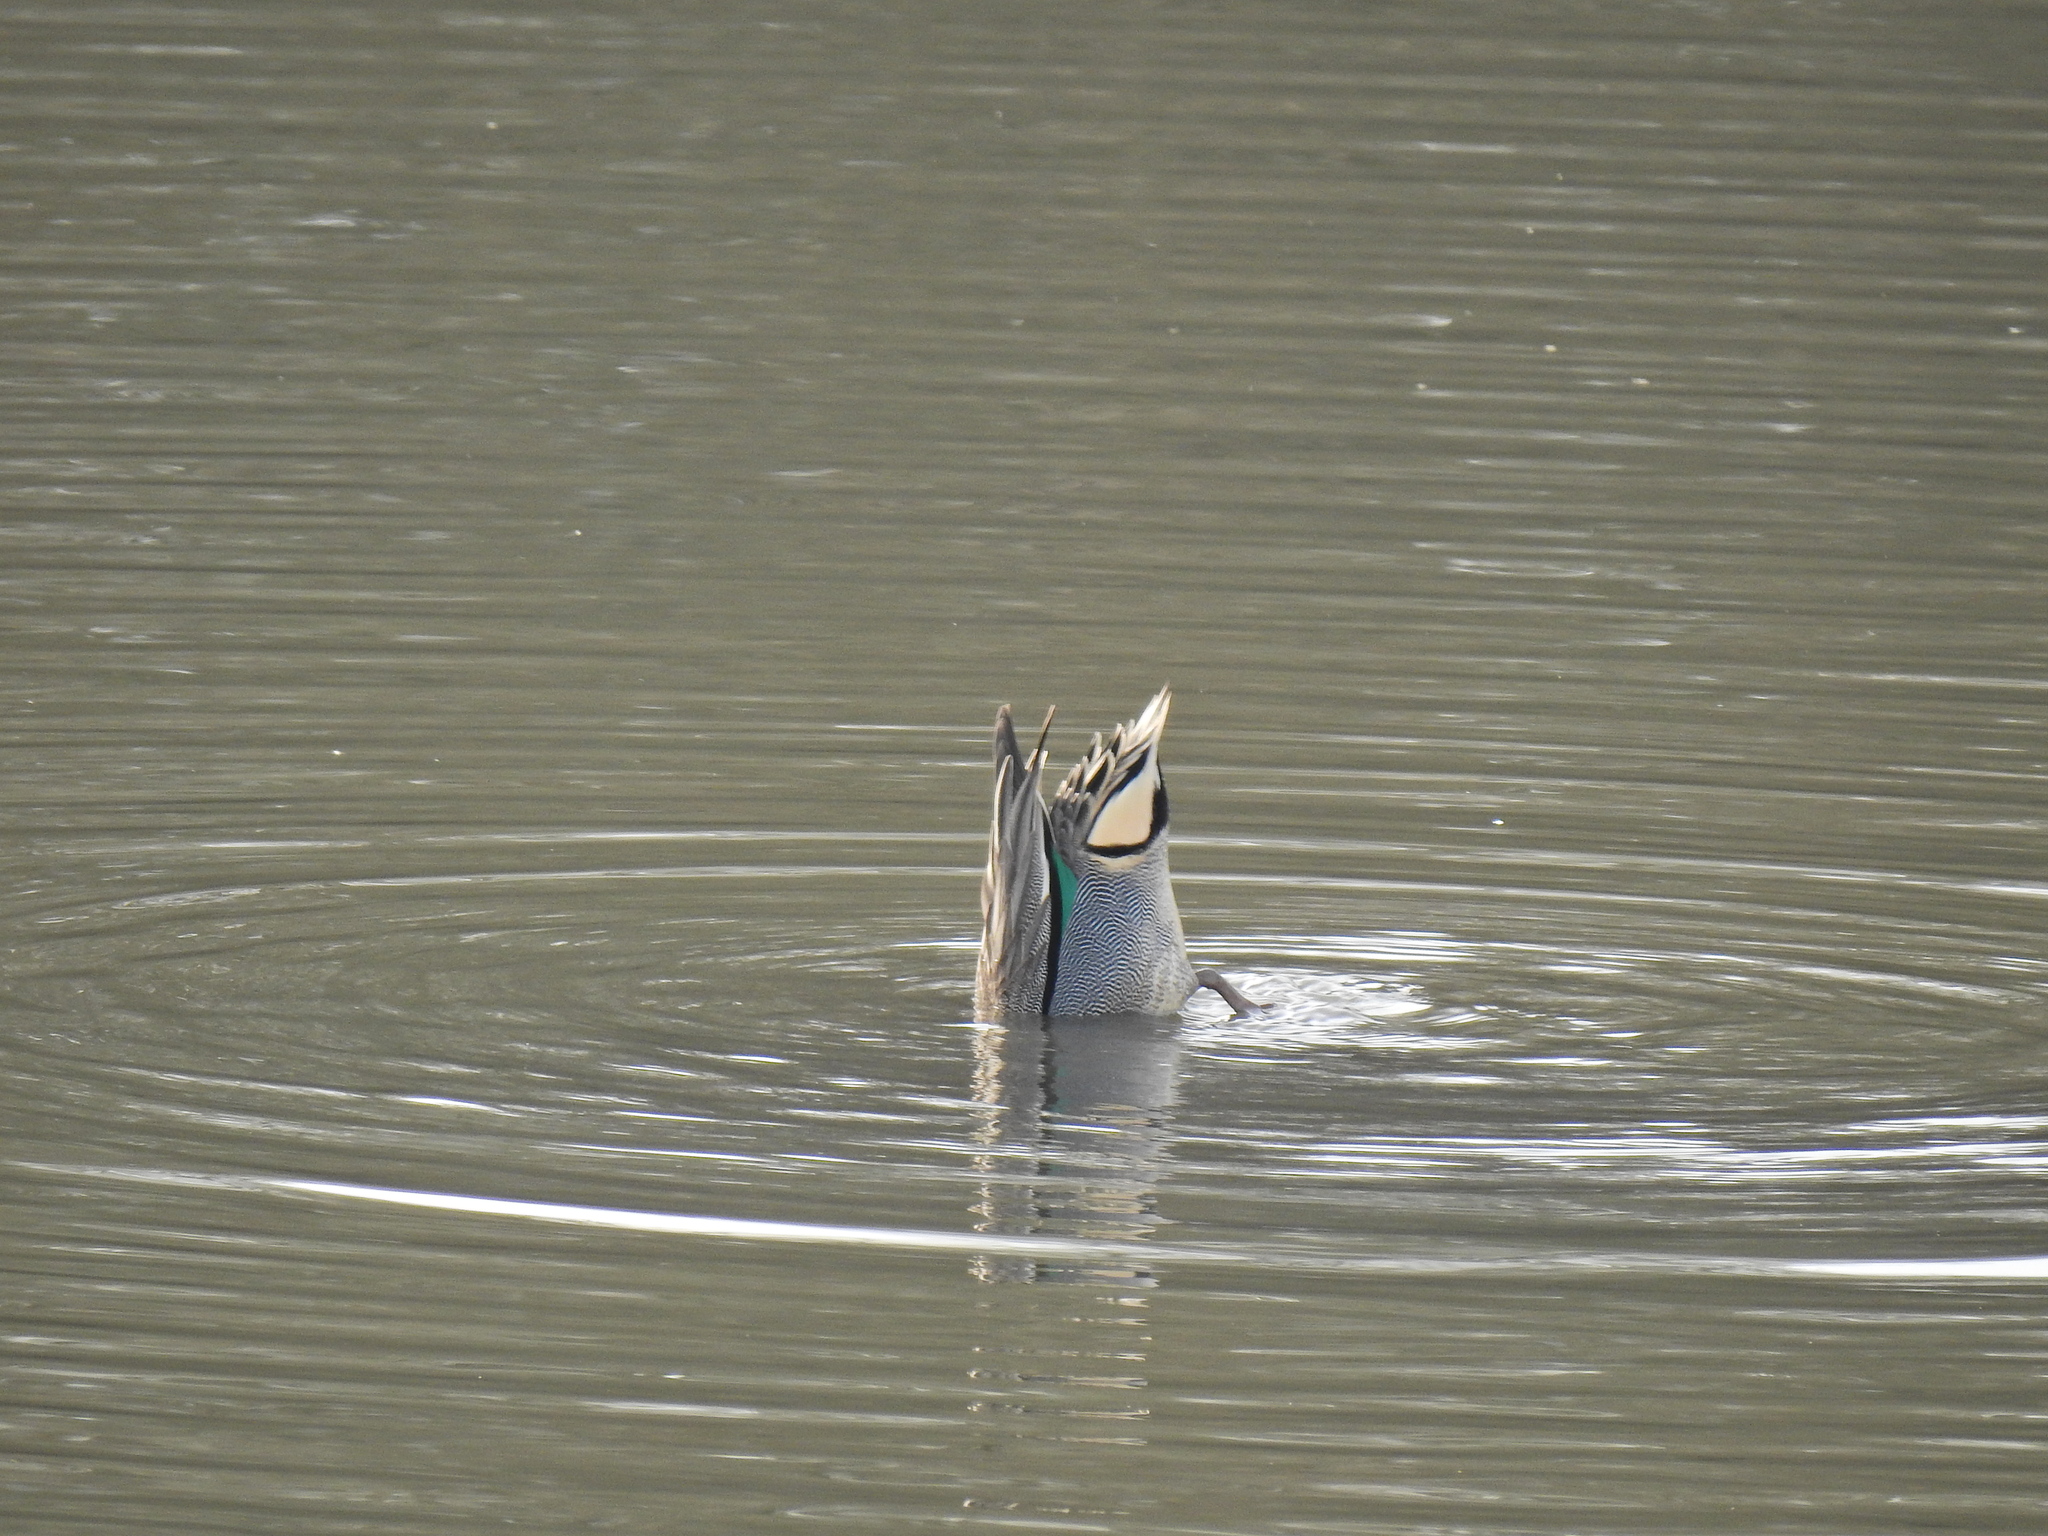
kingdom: Animalia
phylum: Chordata
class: Aves
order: Anseriformes
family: Anatidae
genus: Anas
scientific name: Anas crecca
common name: Eurasian teal
